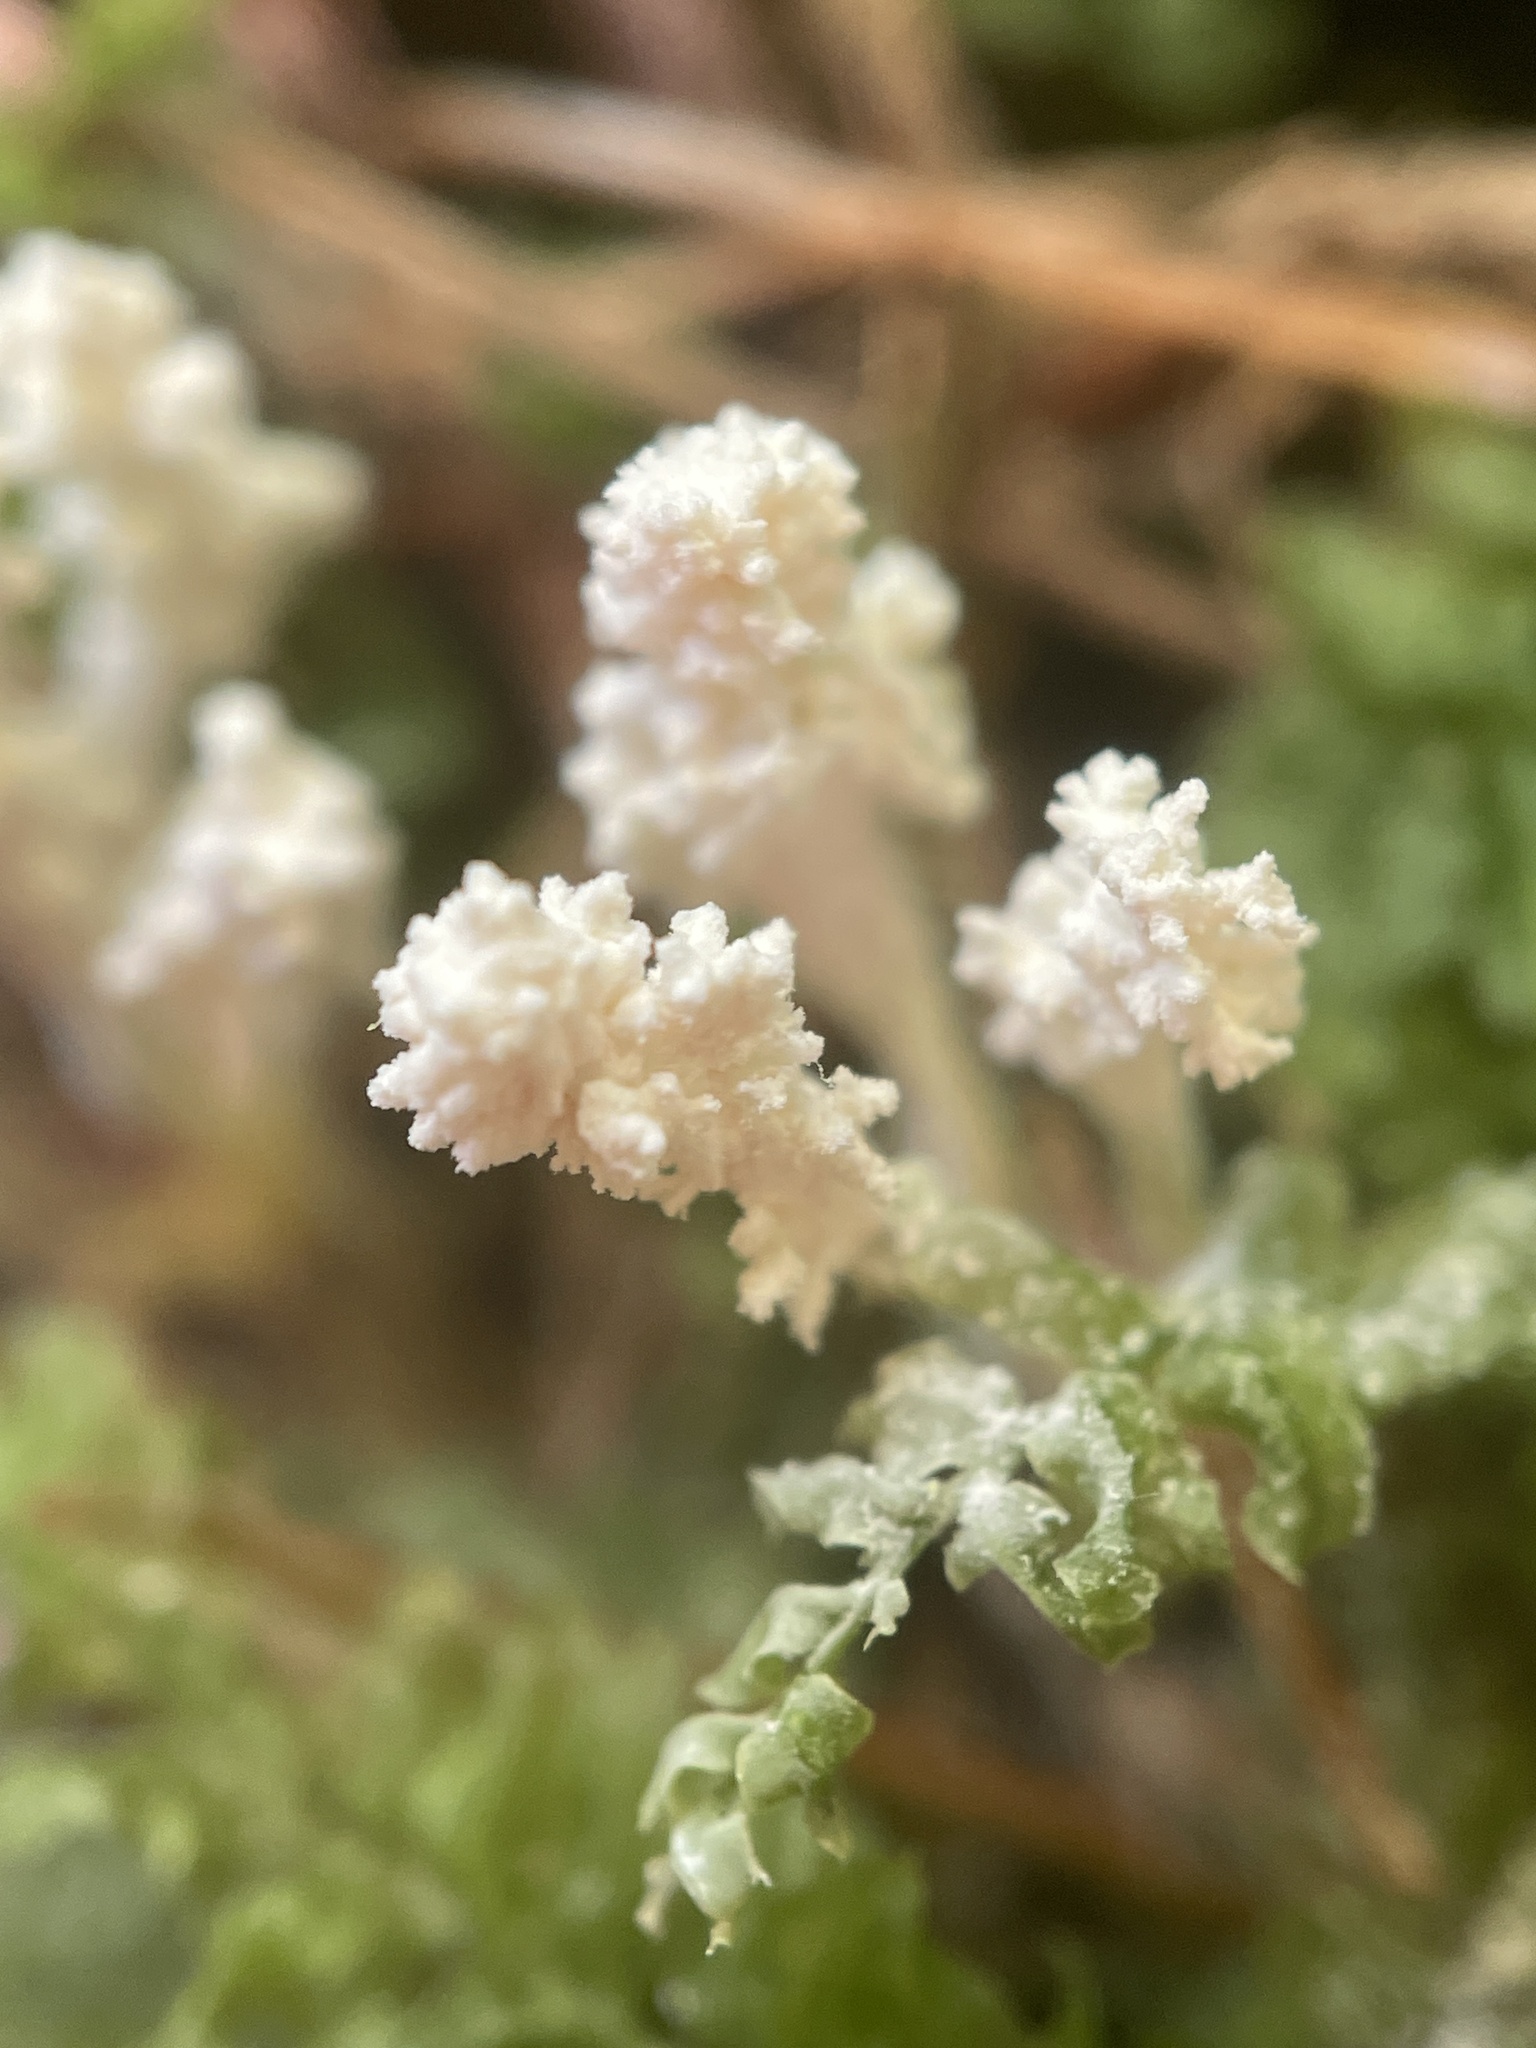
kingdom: Fungi
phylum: Ascomycota
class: Sordariomycetes
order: Hypocreales
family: Cordycipitaceae
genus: Cordyceps
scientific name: Cordyceps tenuipes
